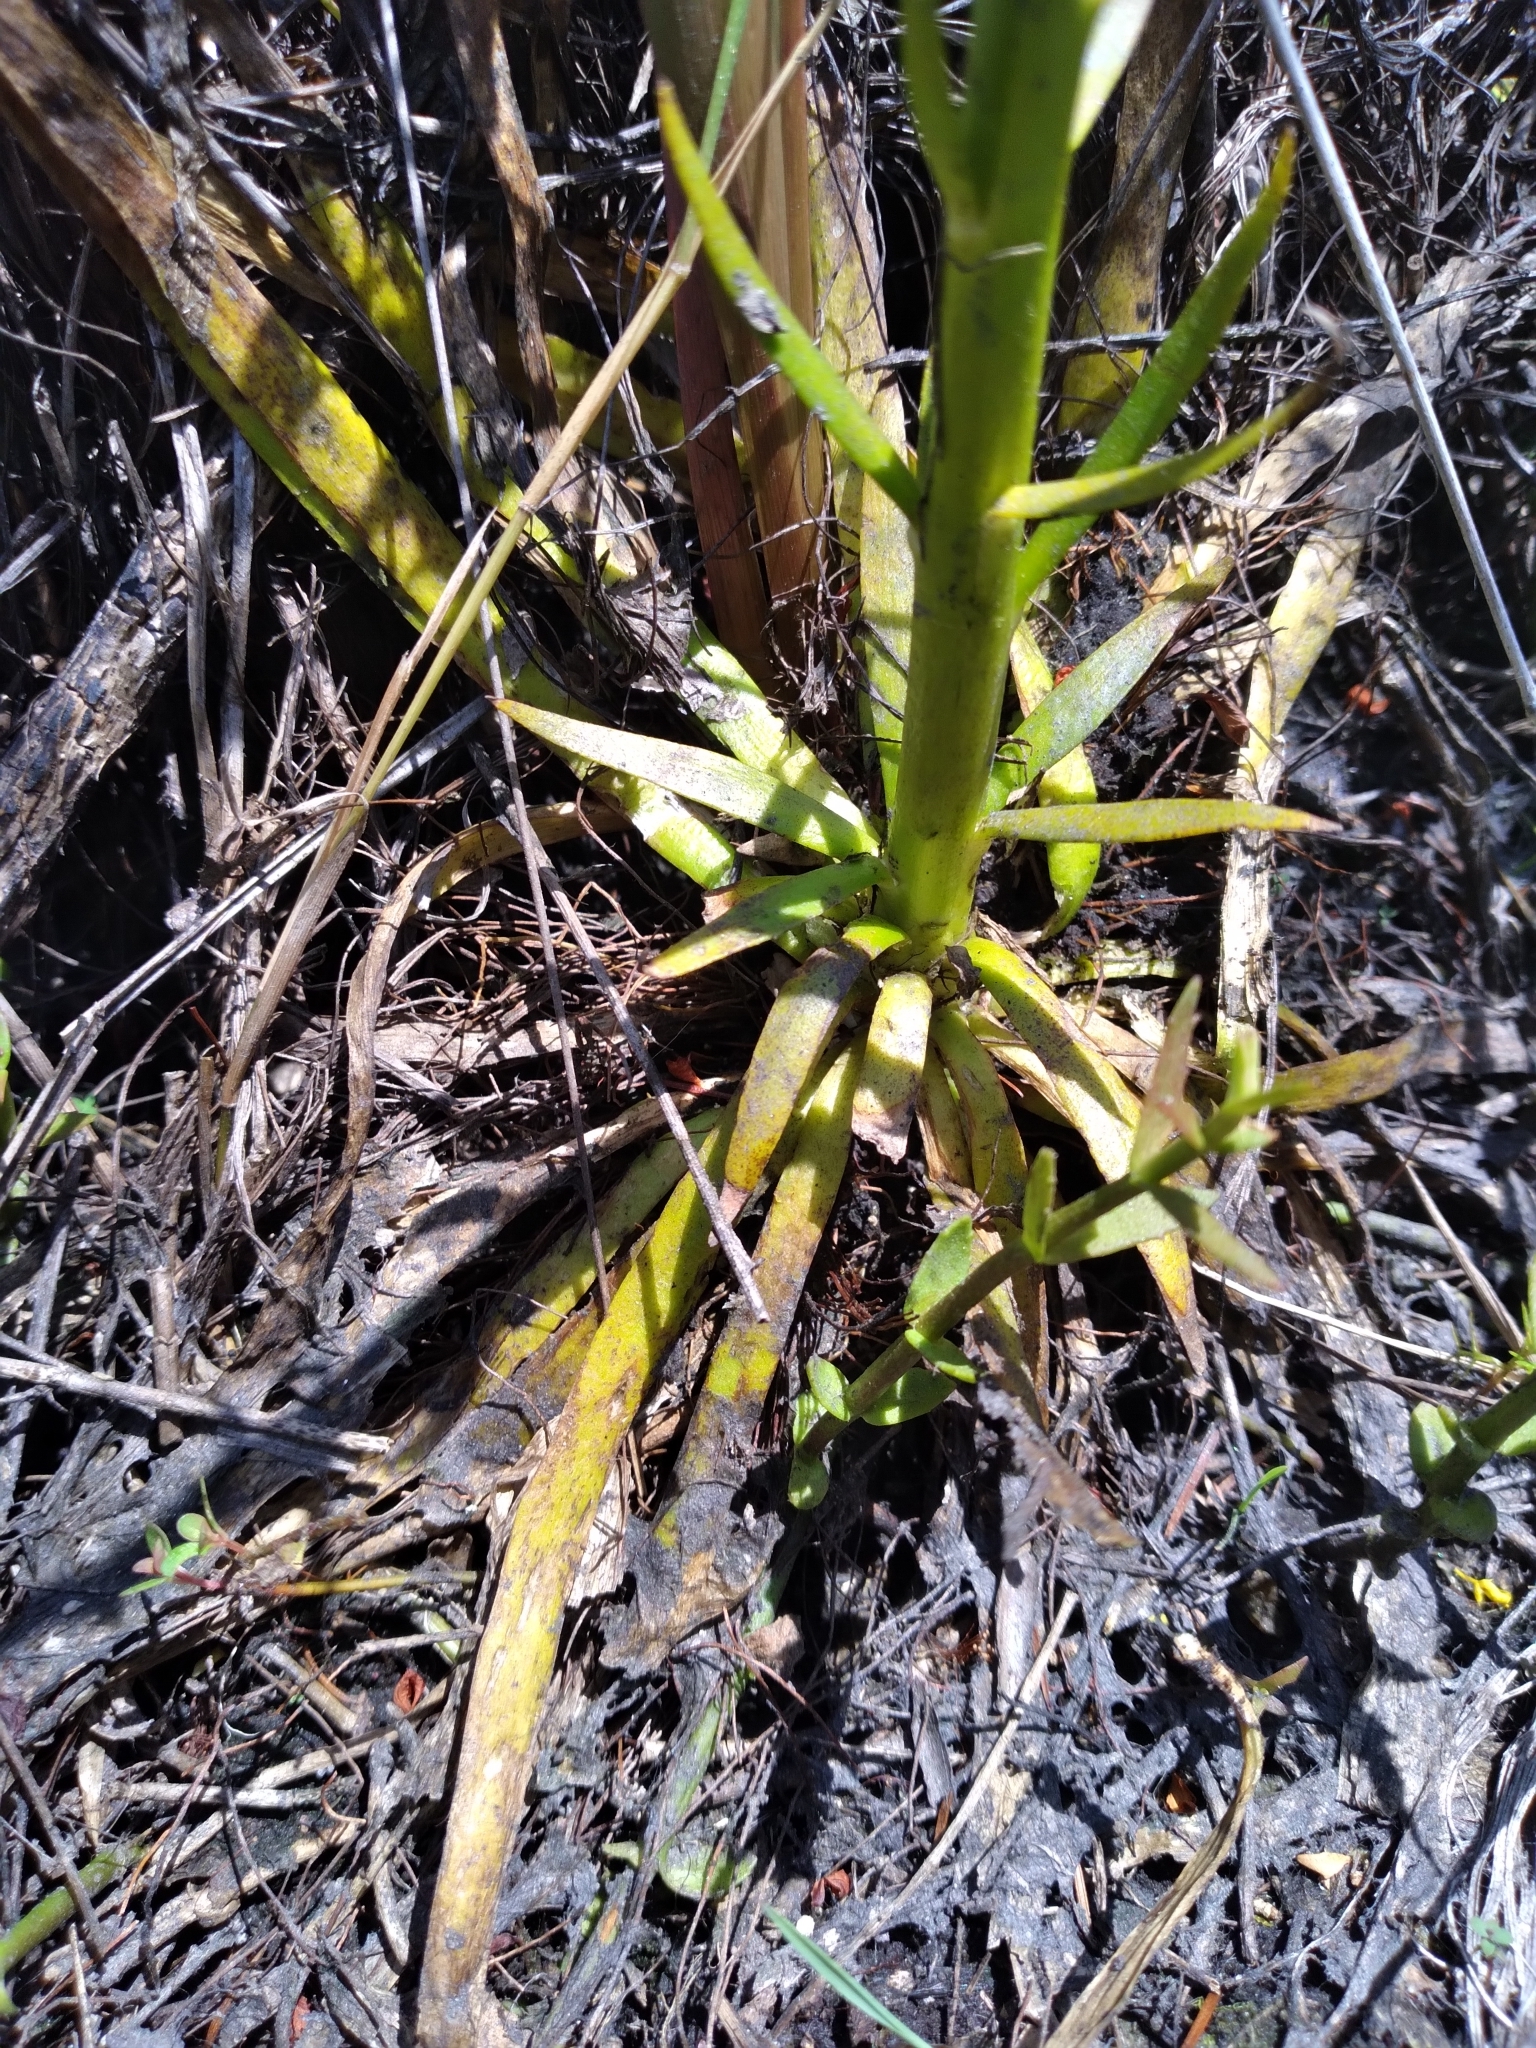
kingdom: Plantae
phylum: Tracheophyta
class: Magnoliopsida
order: Fabales
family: Polygalaceae
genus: Polygala
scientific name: Polygala cymosa
